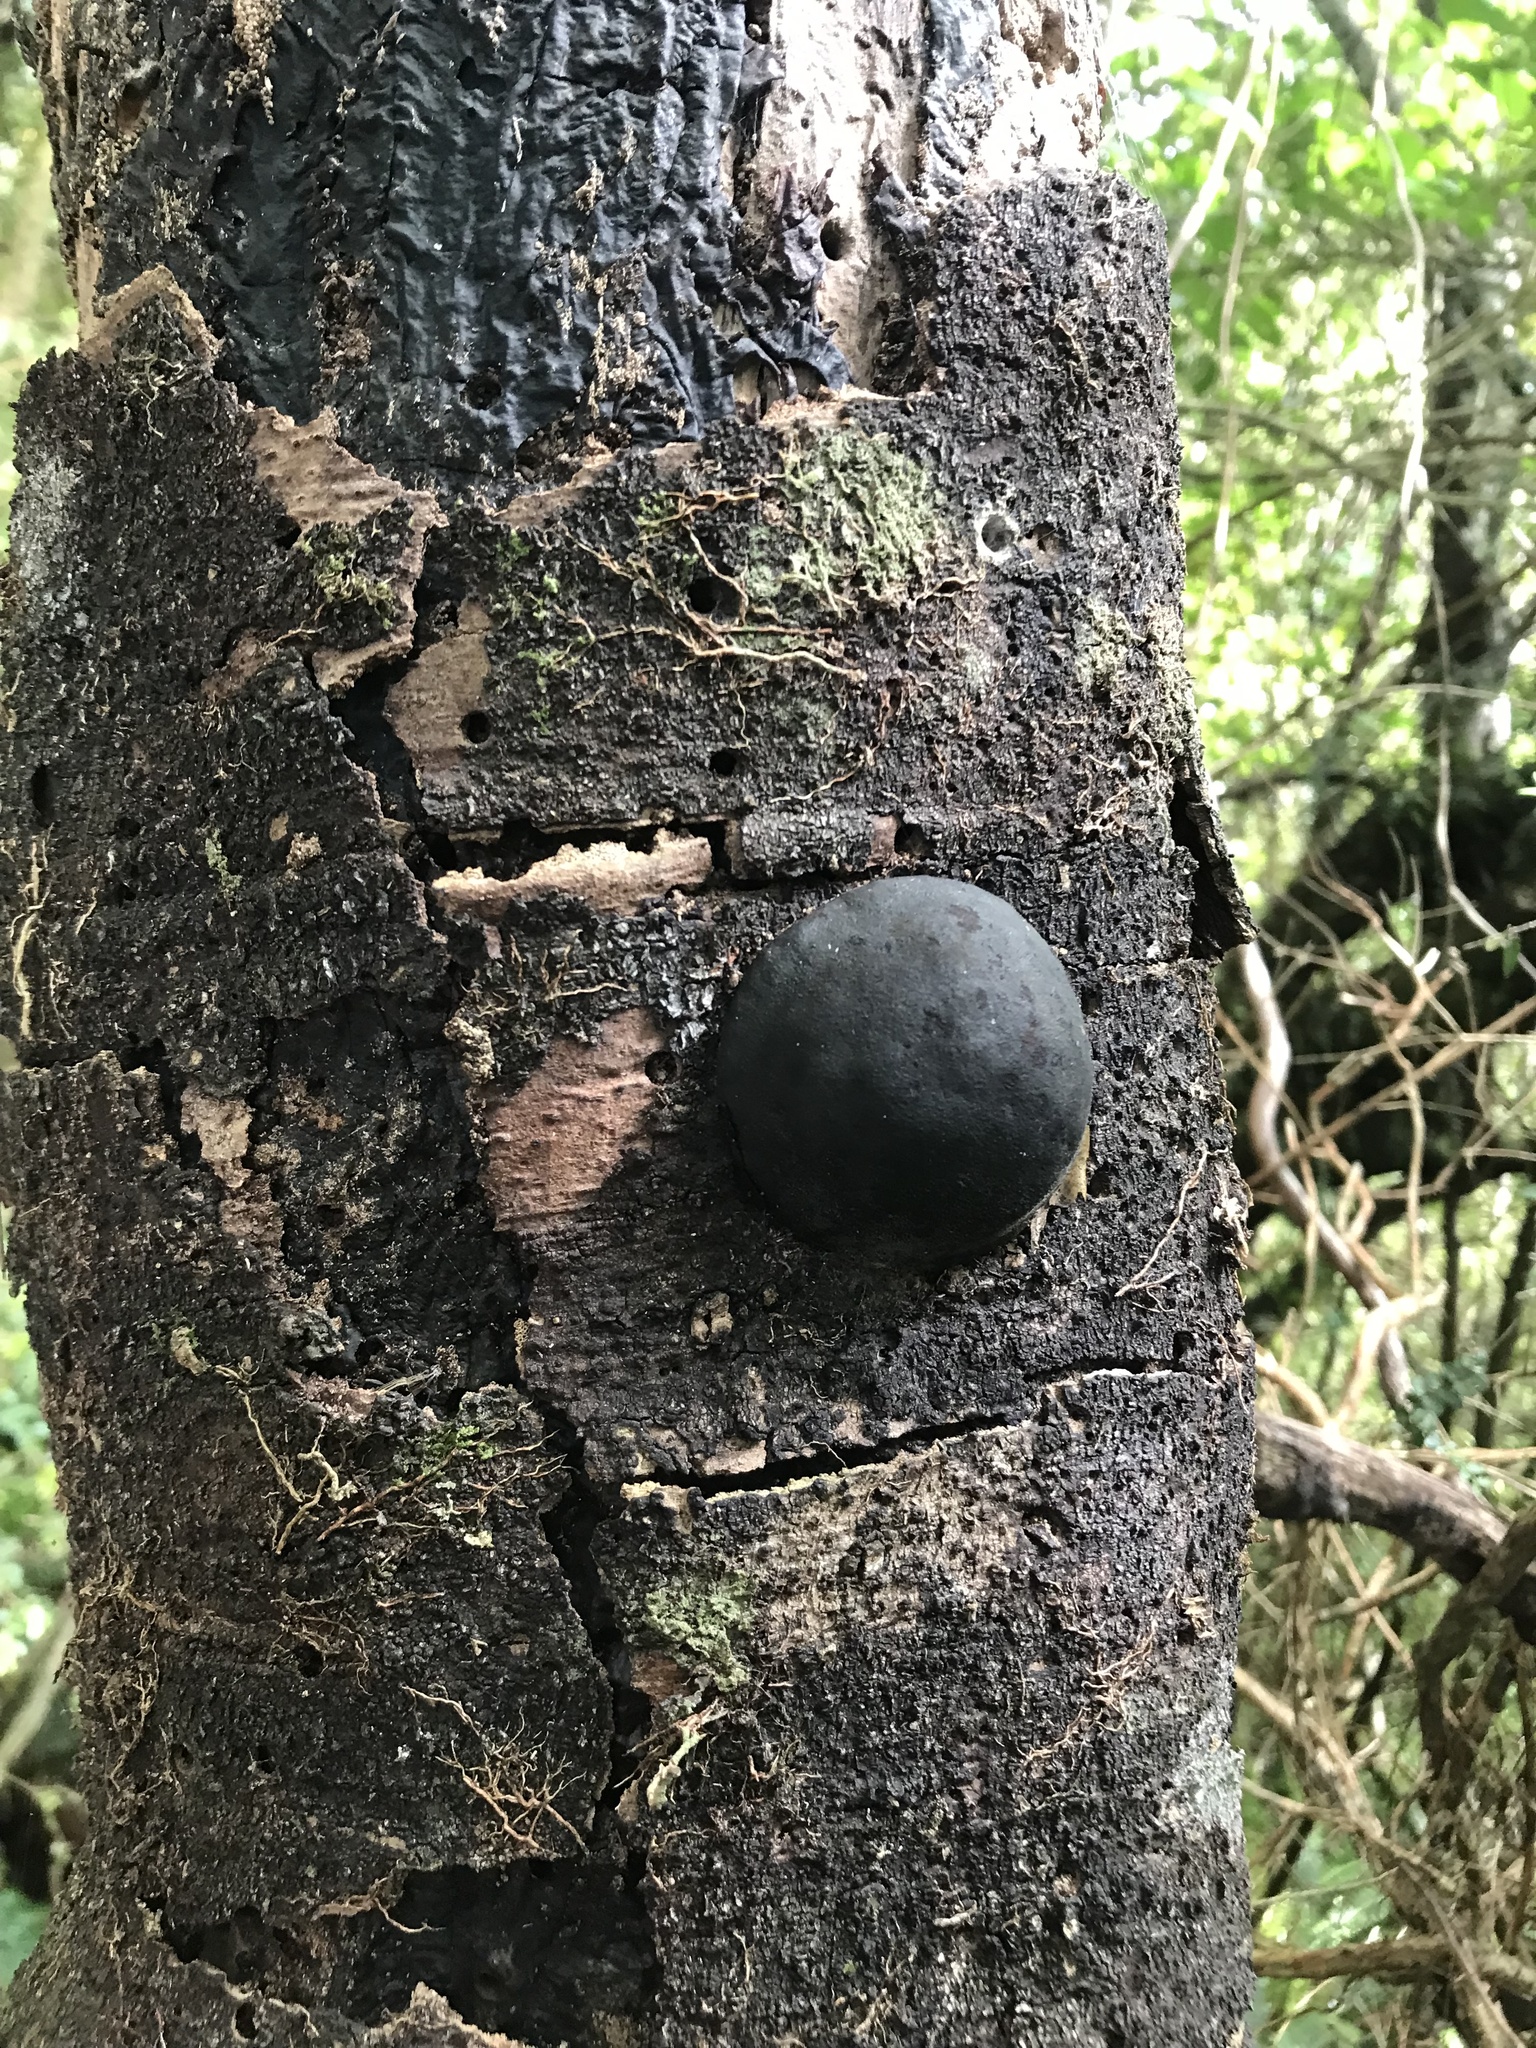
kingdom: Fungi
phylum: Ascomycota
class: Sordariomycetes
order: Xylariales
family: Hypoxylaceae
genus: Daldinia
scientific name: Daldinia
